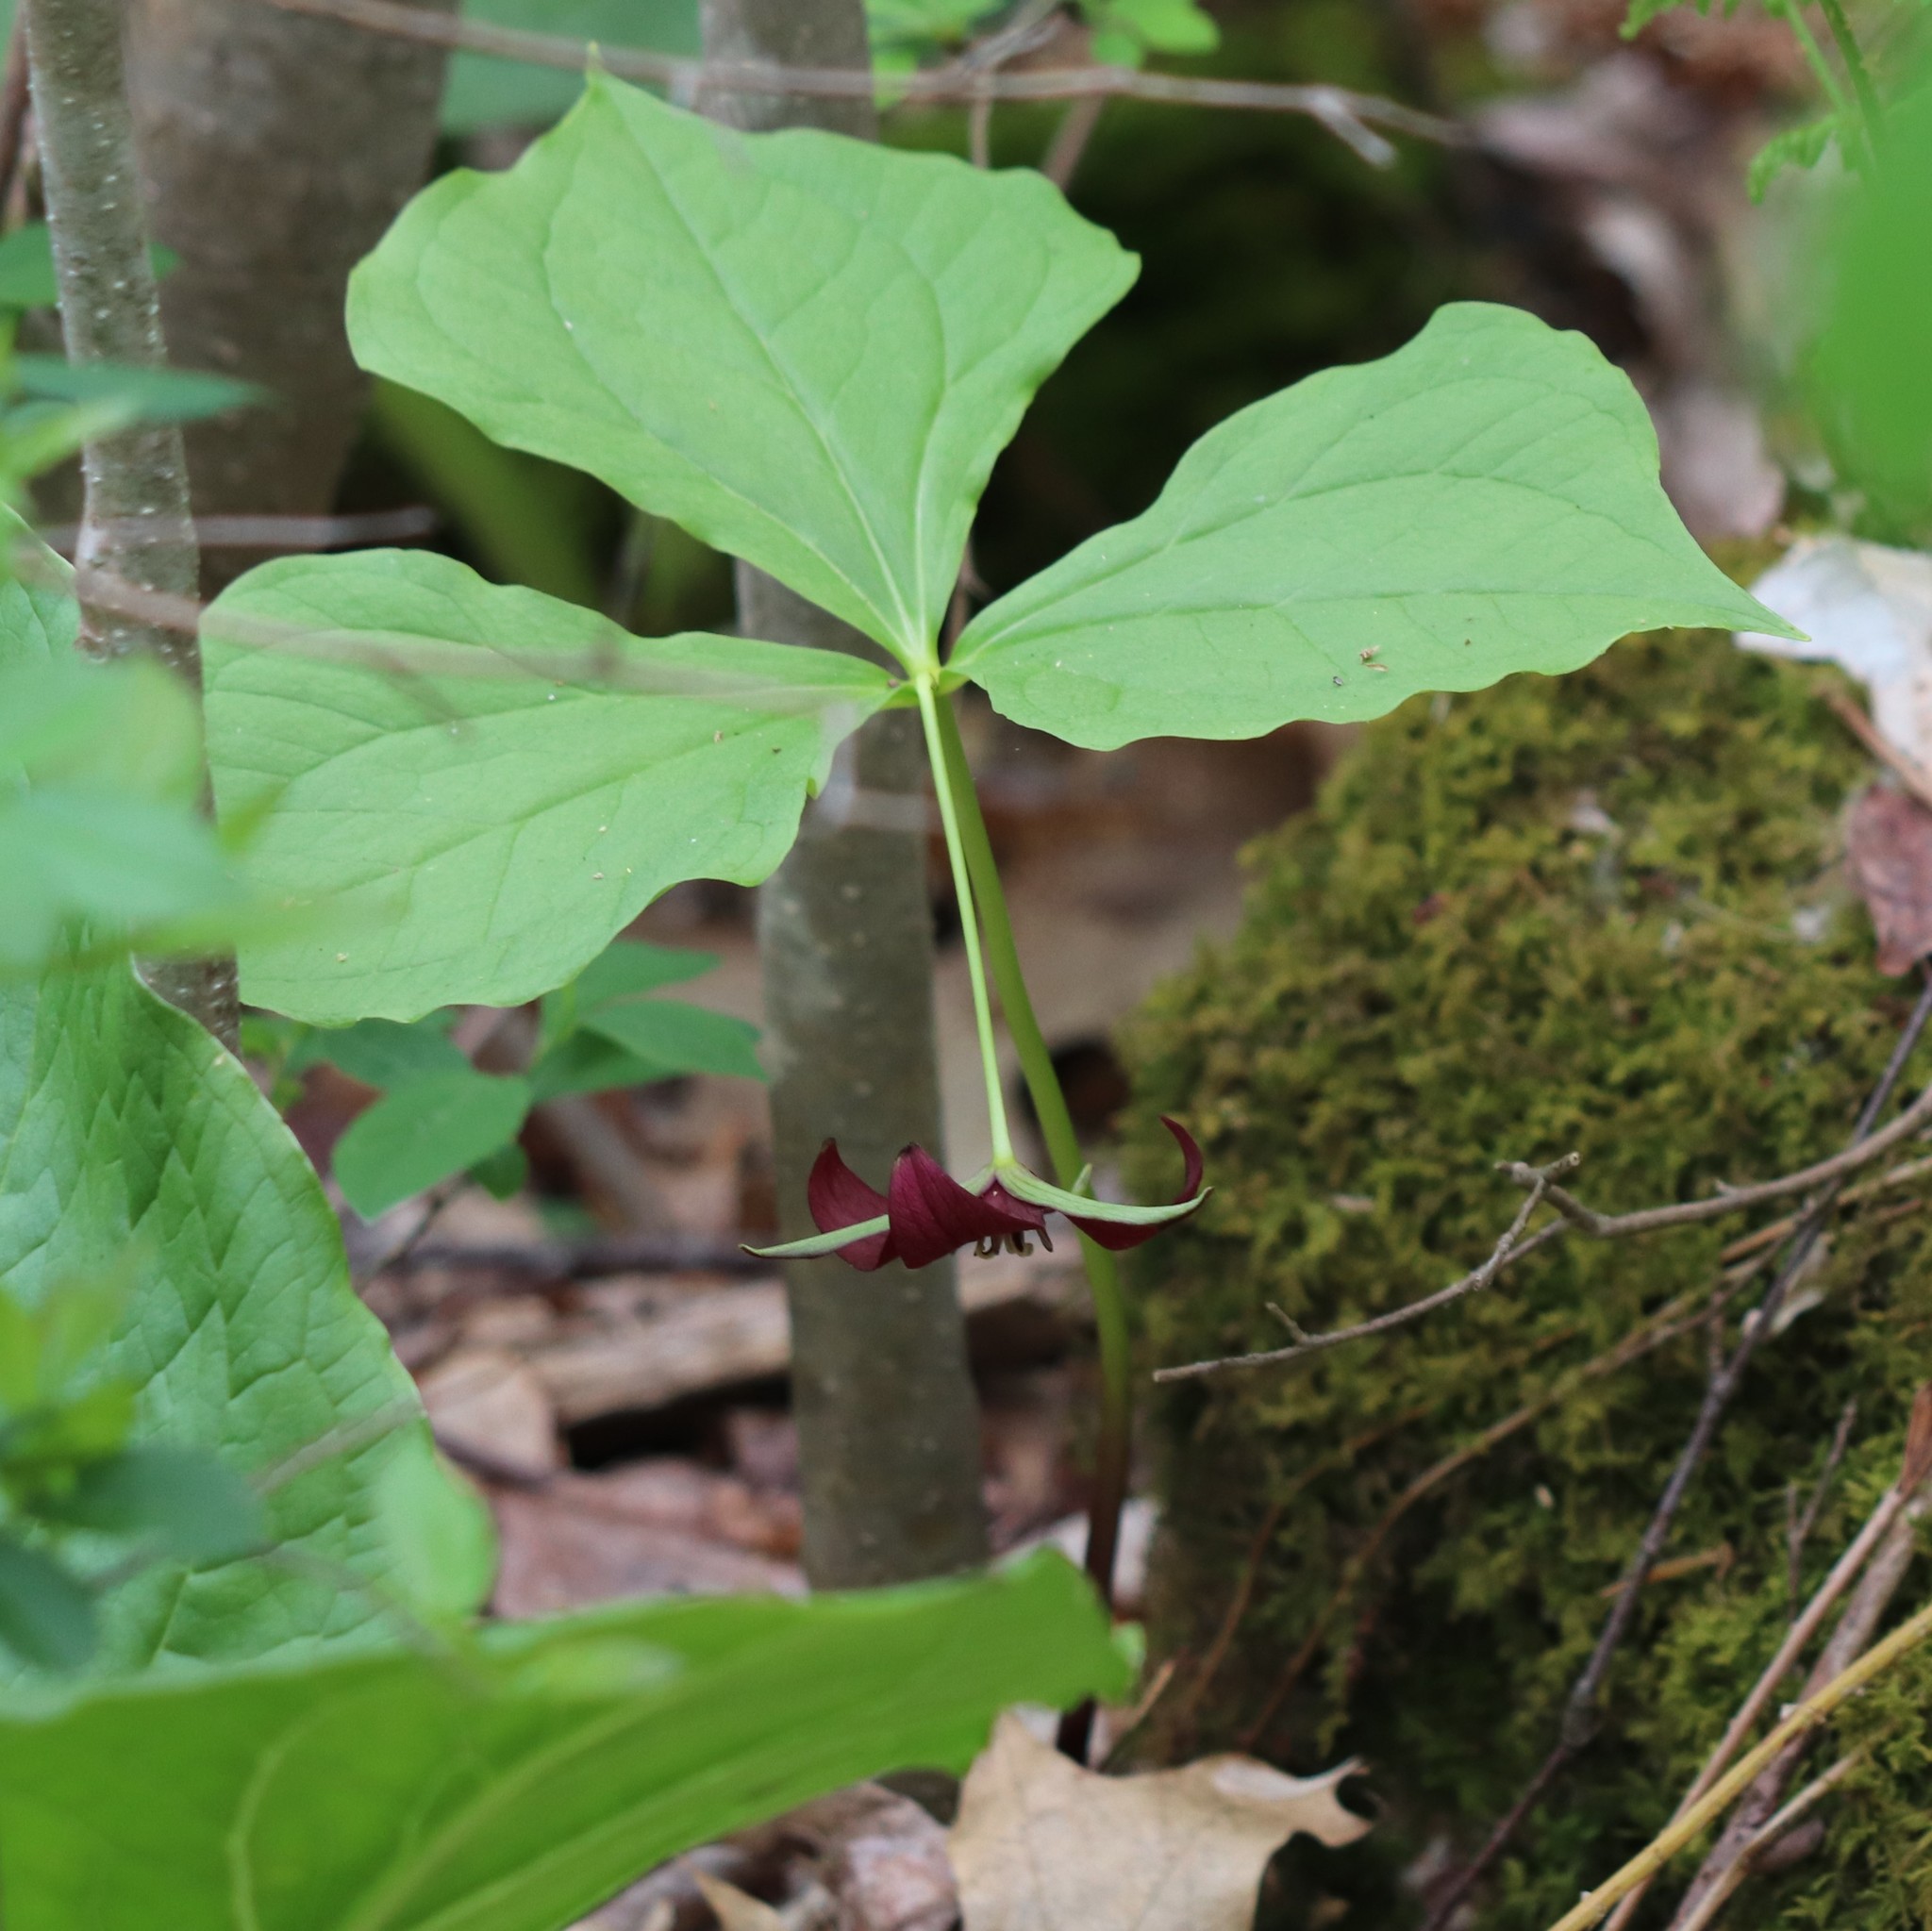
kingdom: Plantae
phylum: Tracheophyta
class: Liliopsida
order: Liliales
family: Melanthiaceae
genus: Trillium
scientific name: Trillium erectum
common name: Purple trillium
